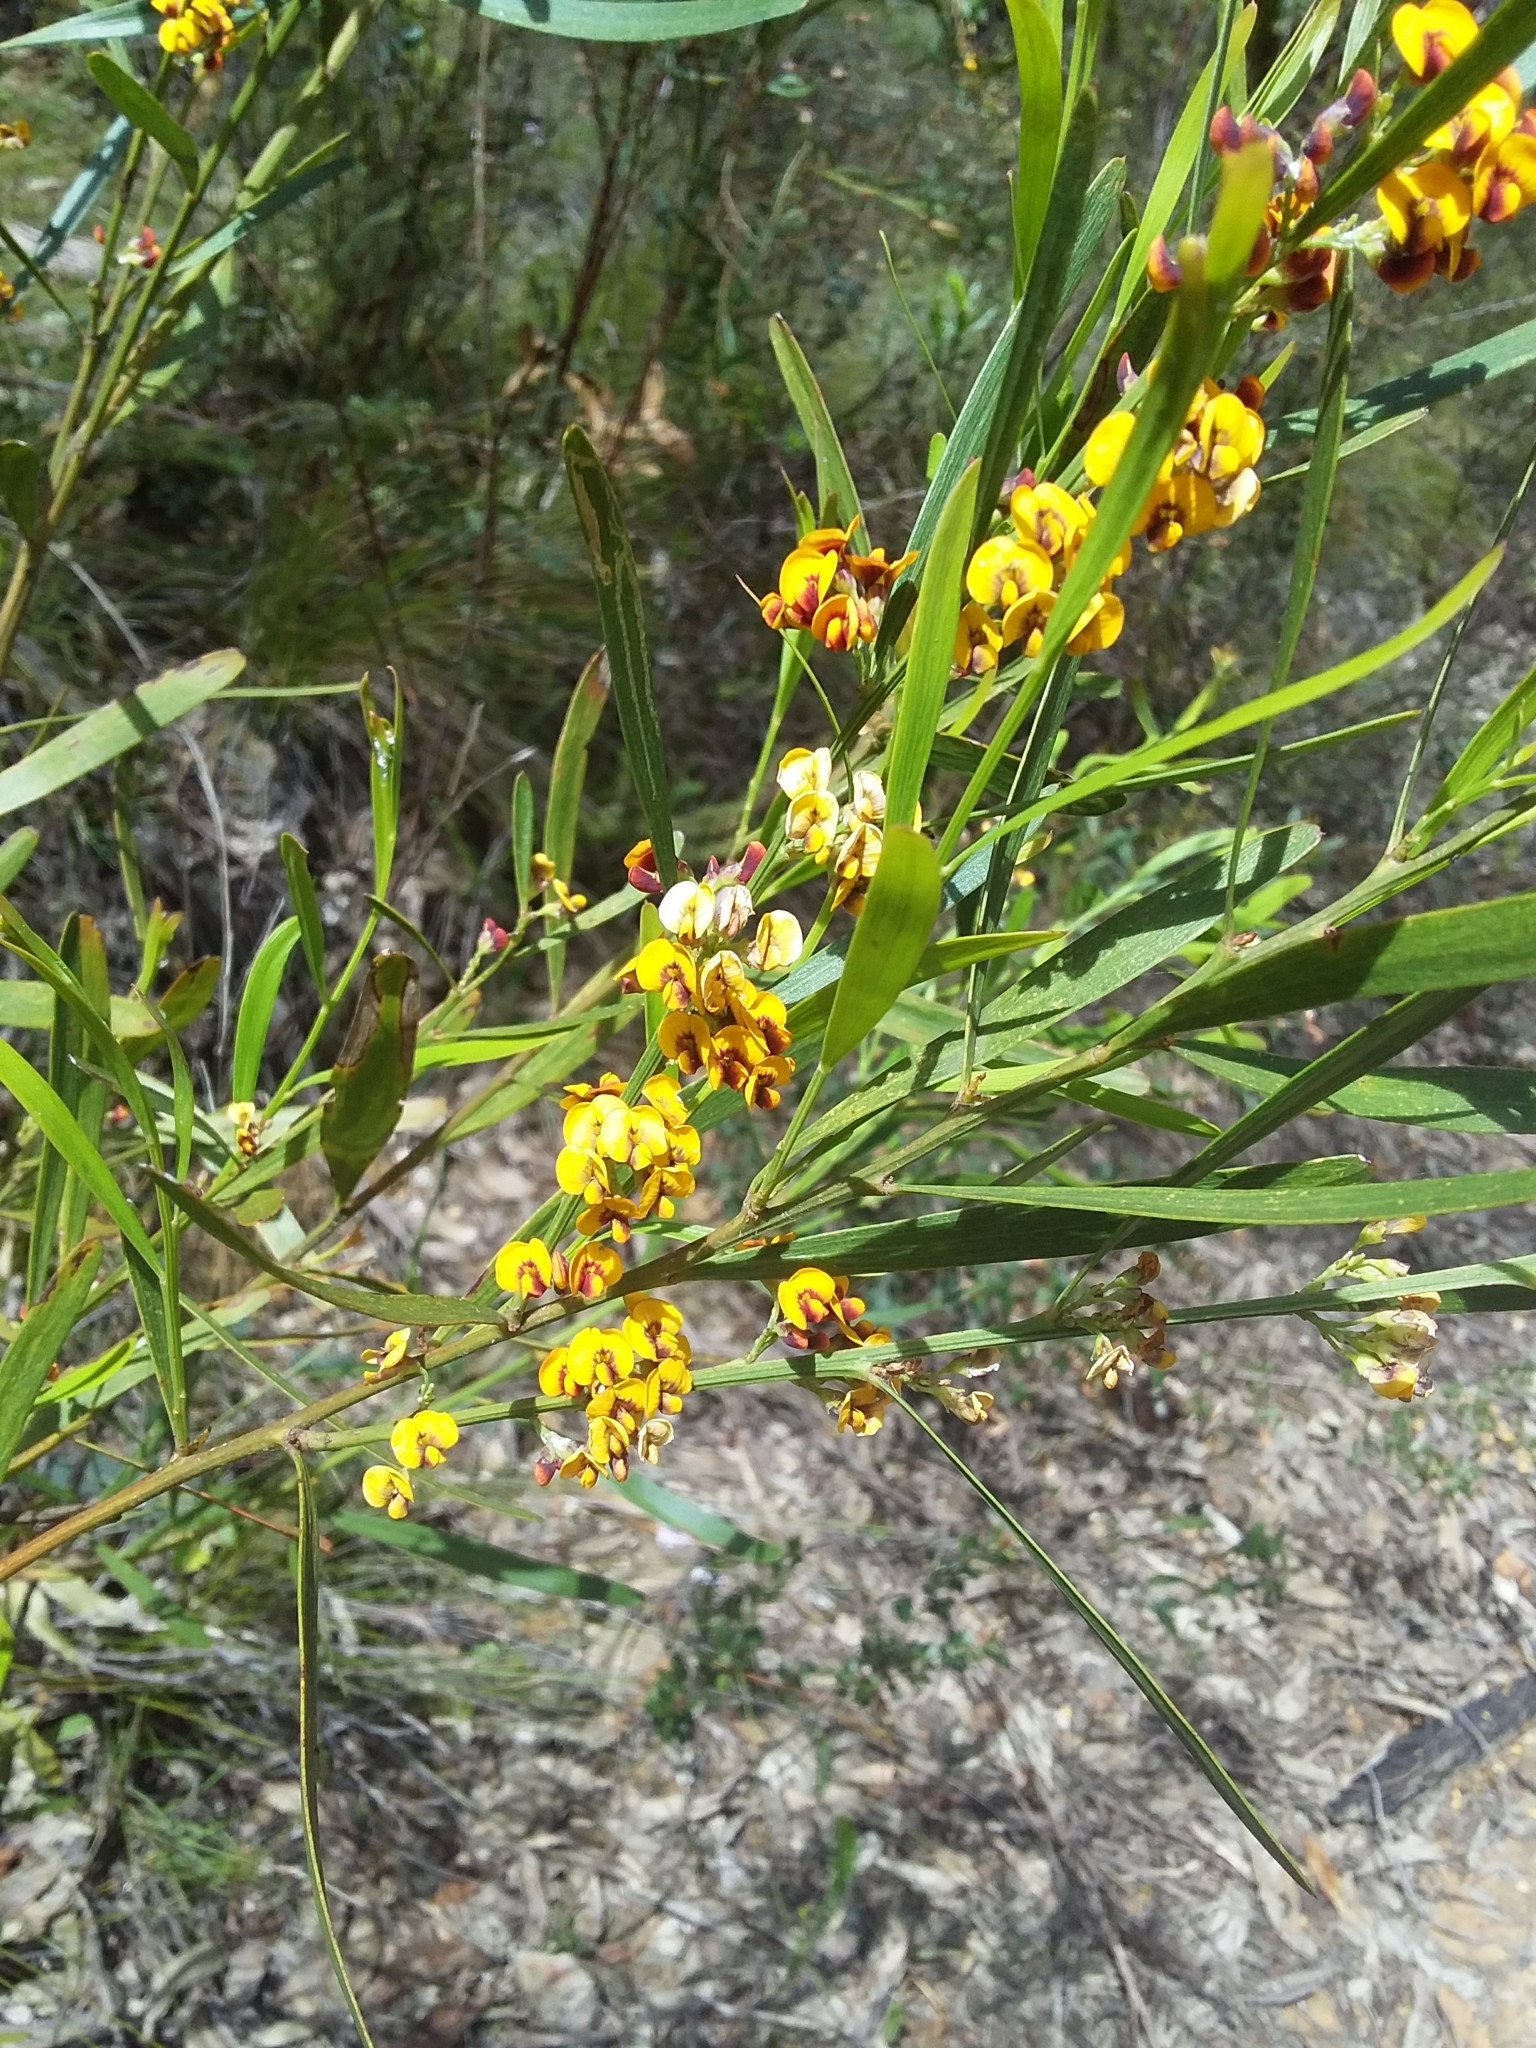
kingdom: Plantae
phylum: Tracheophyta
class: Magnoliopsida
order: Fabales
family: Fabaceae
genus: Daviesia
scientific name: Daviesia leptophylla
